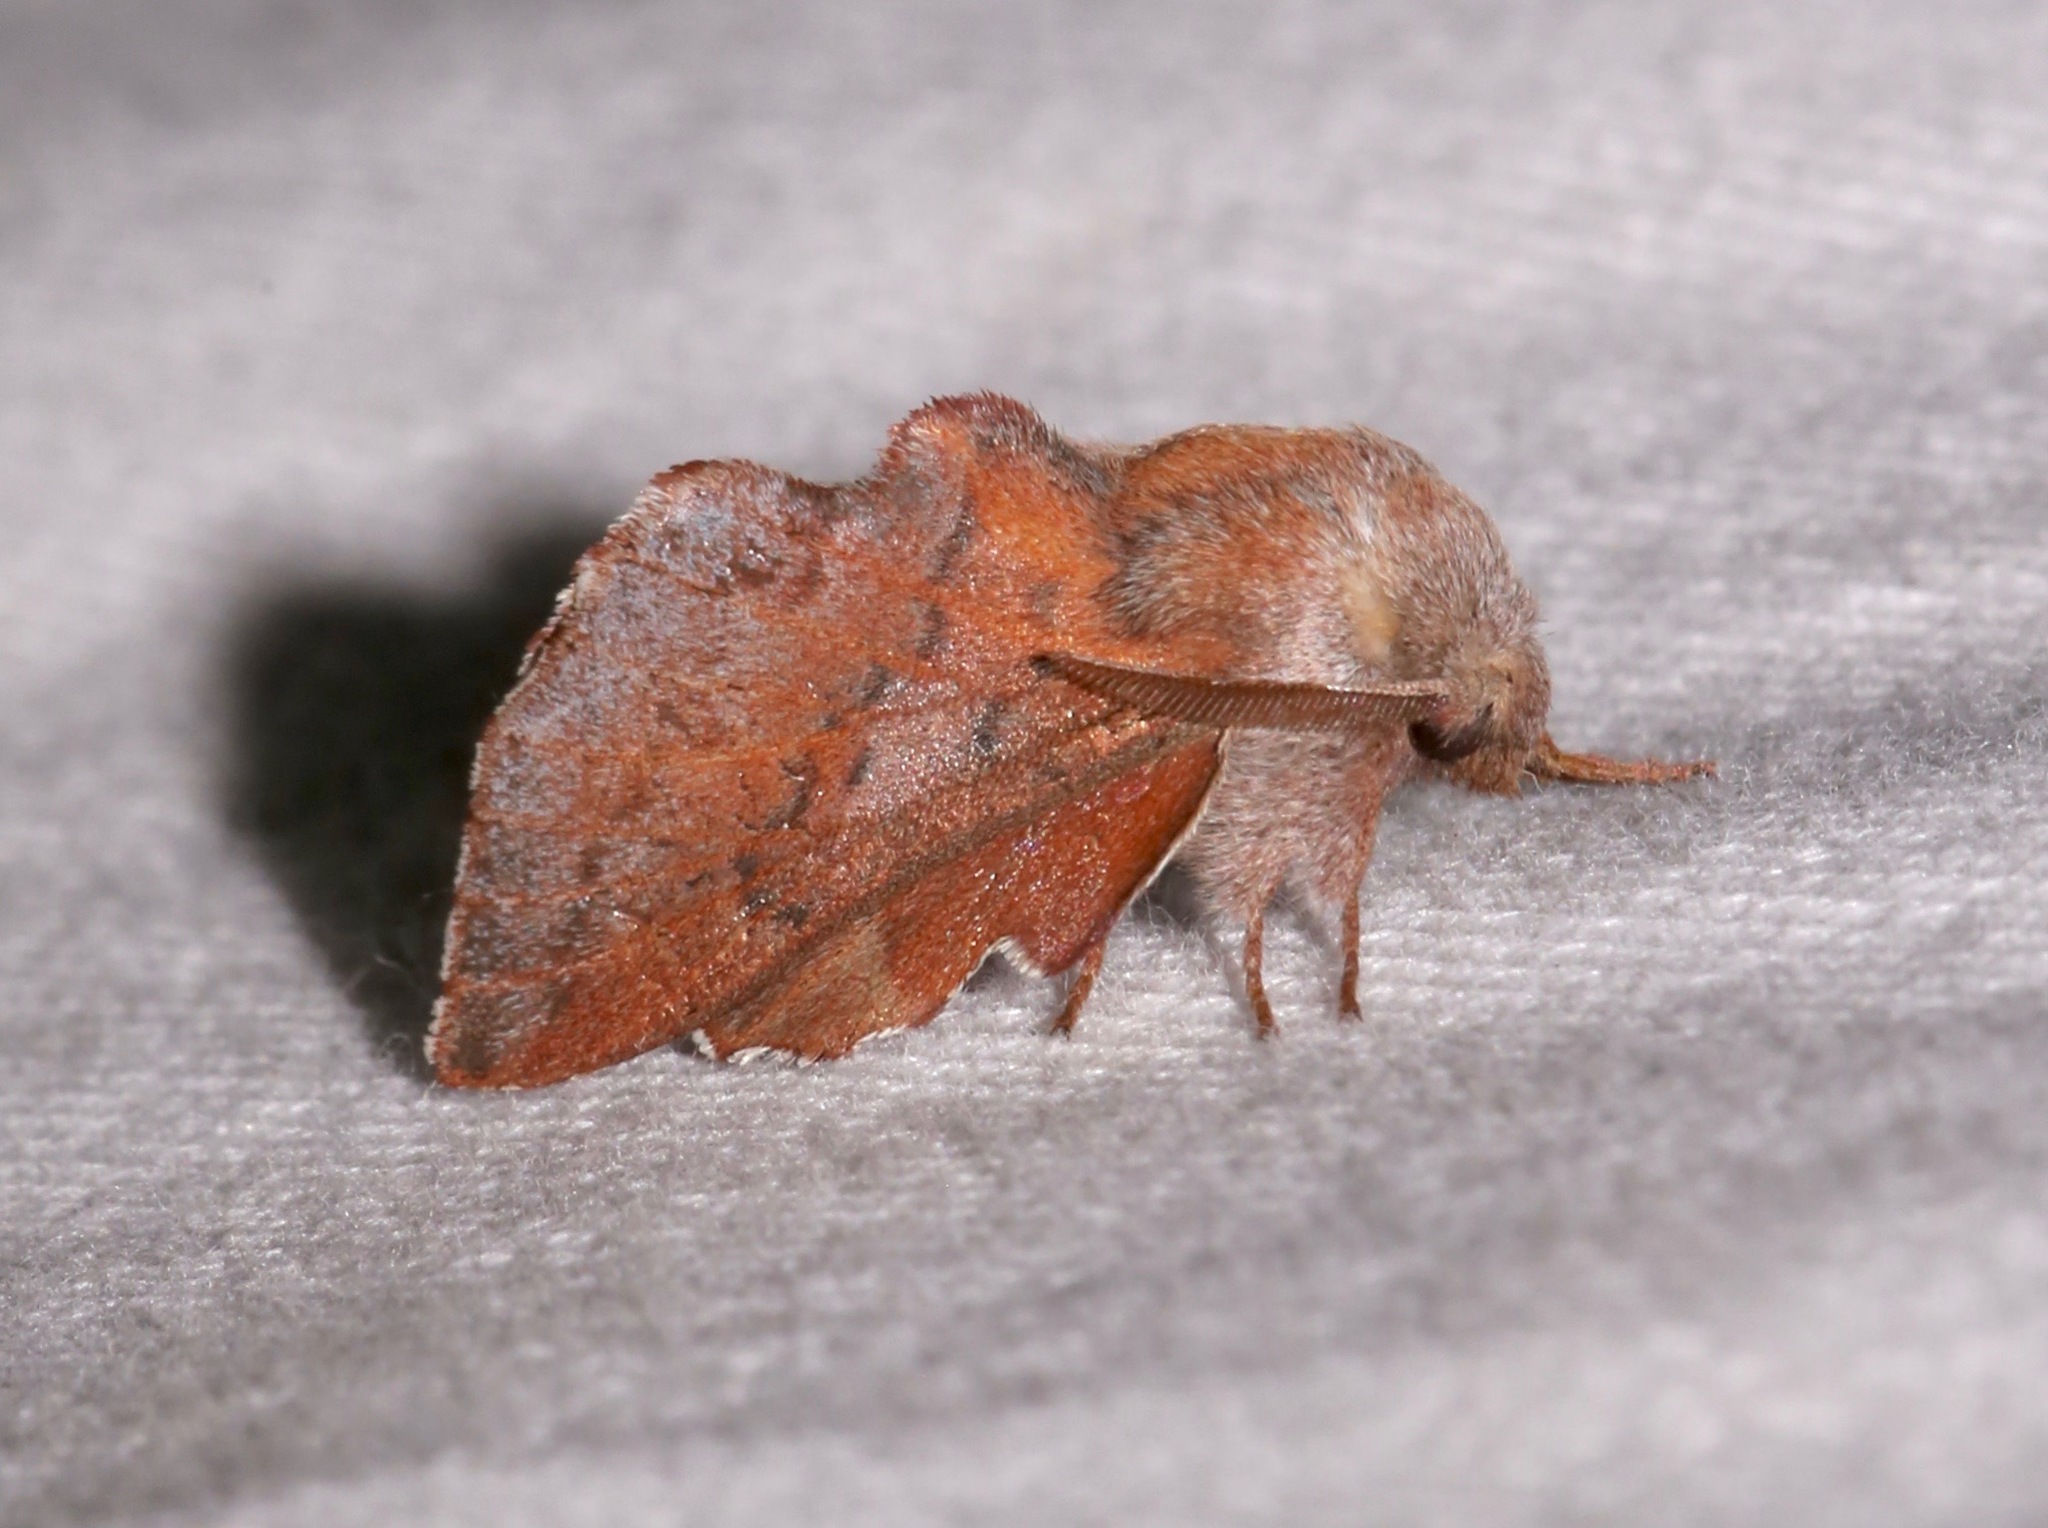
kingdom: Animalia
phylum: Arthropoda
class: Insecta
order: Lepidoptera
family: Lasiocampidae
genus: Phyllodesma
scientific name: Phyllodesma americana
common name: American lappet moth
